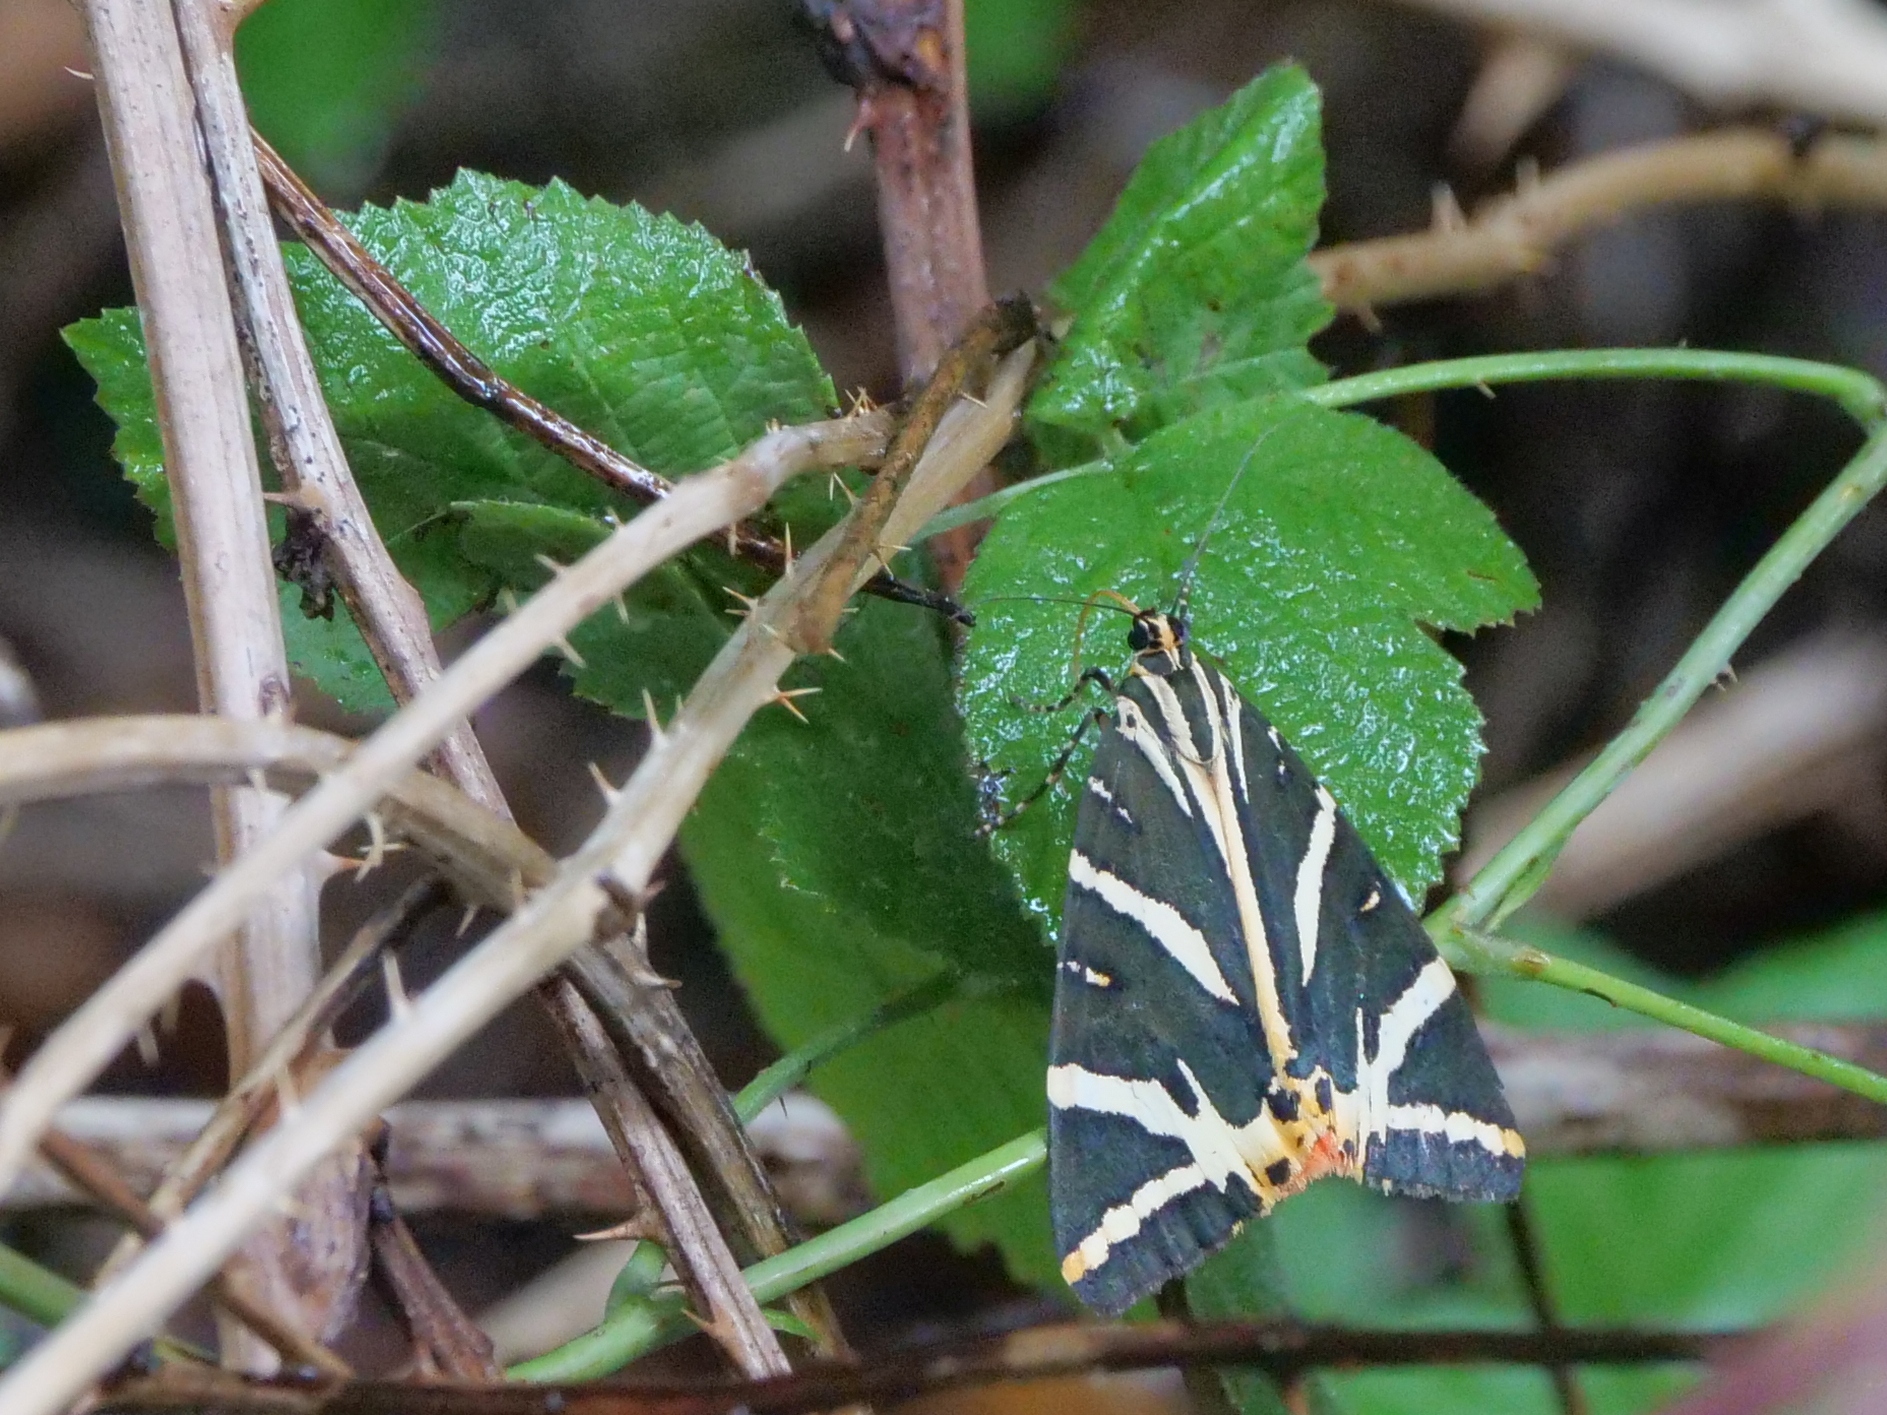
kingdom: Animalia
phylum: Arthropoda
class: Insecta
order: Lepidoptera
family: Erebidae
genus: Euplagia
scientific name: Euplagia quadripunctaria
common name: Jersey tiger
